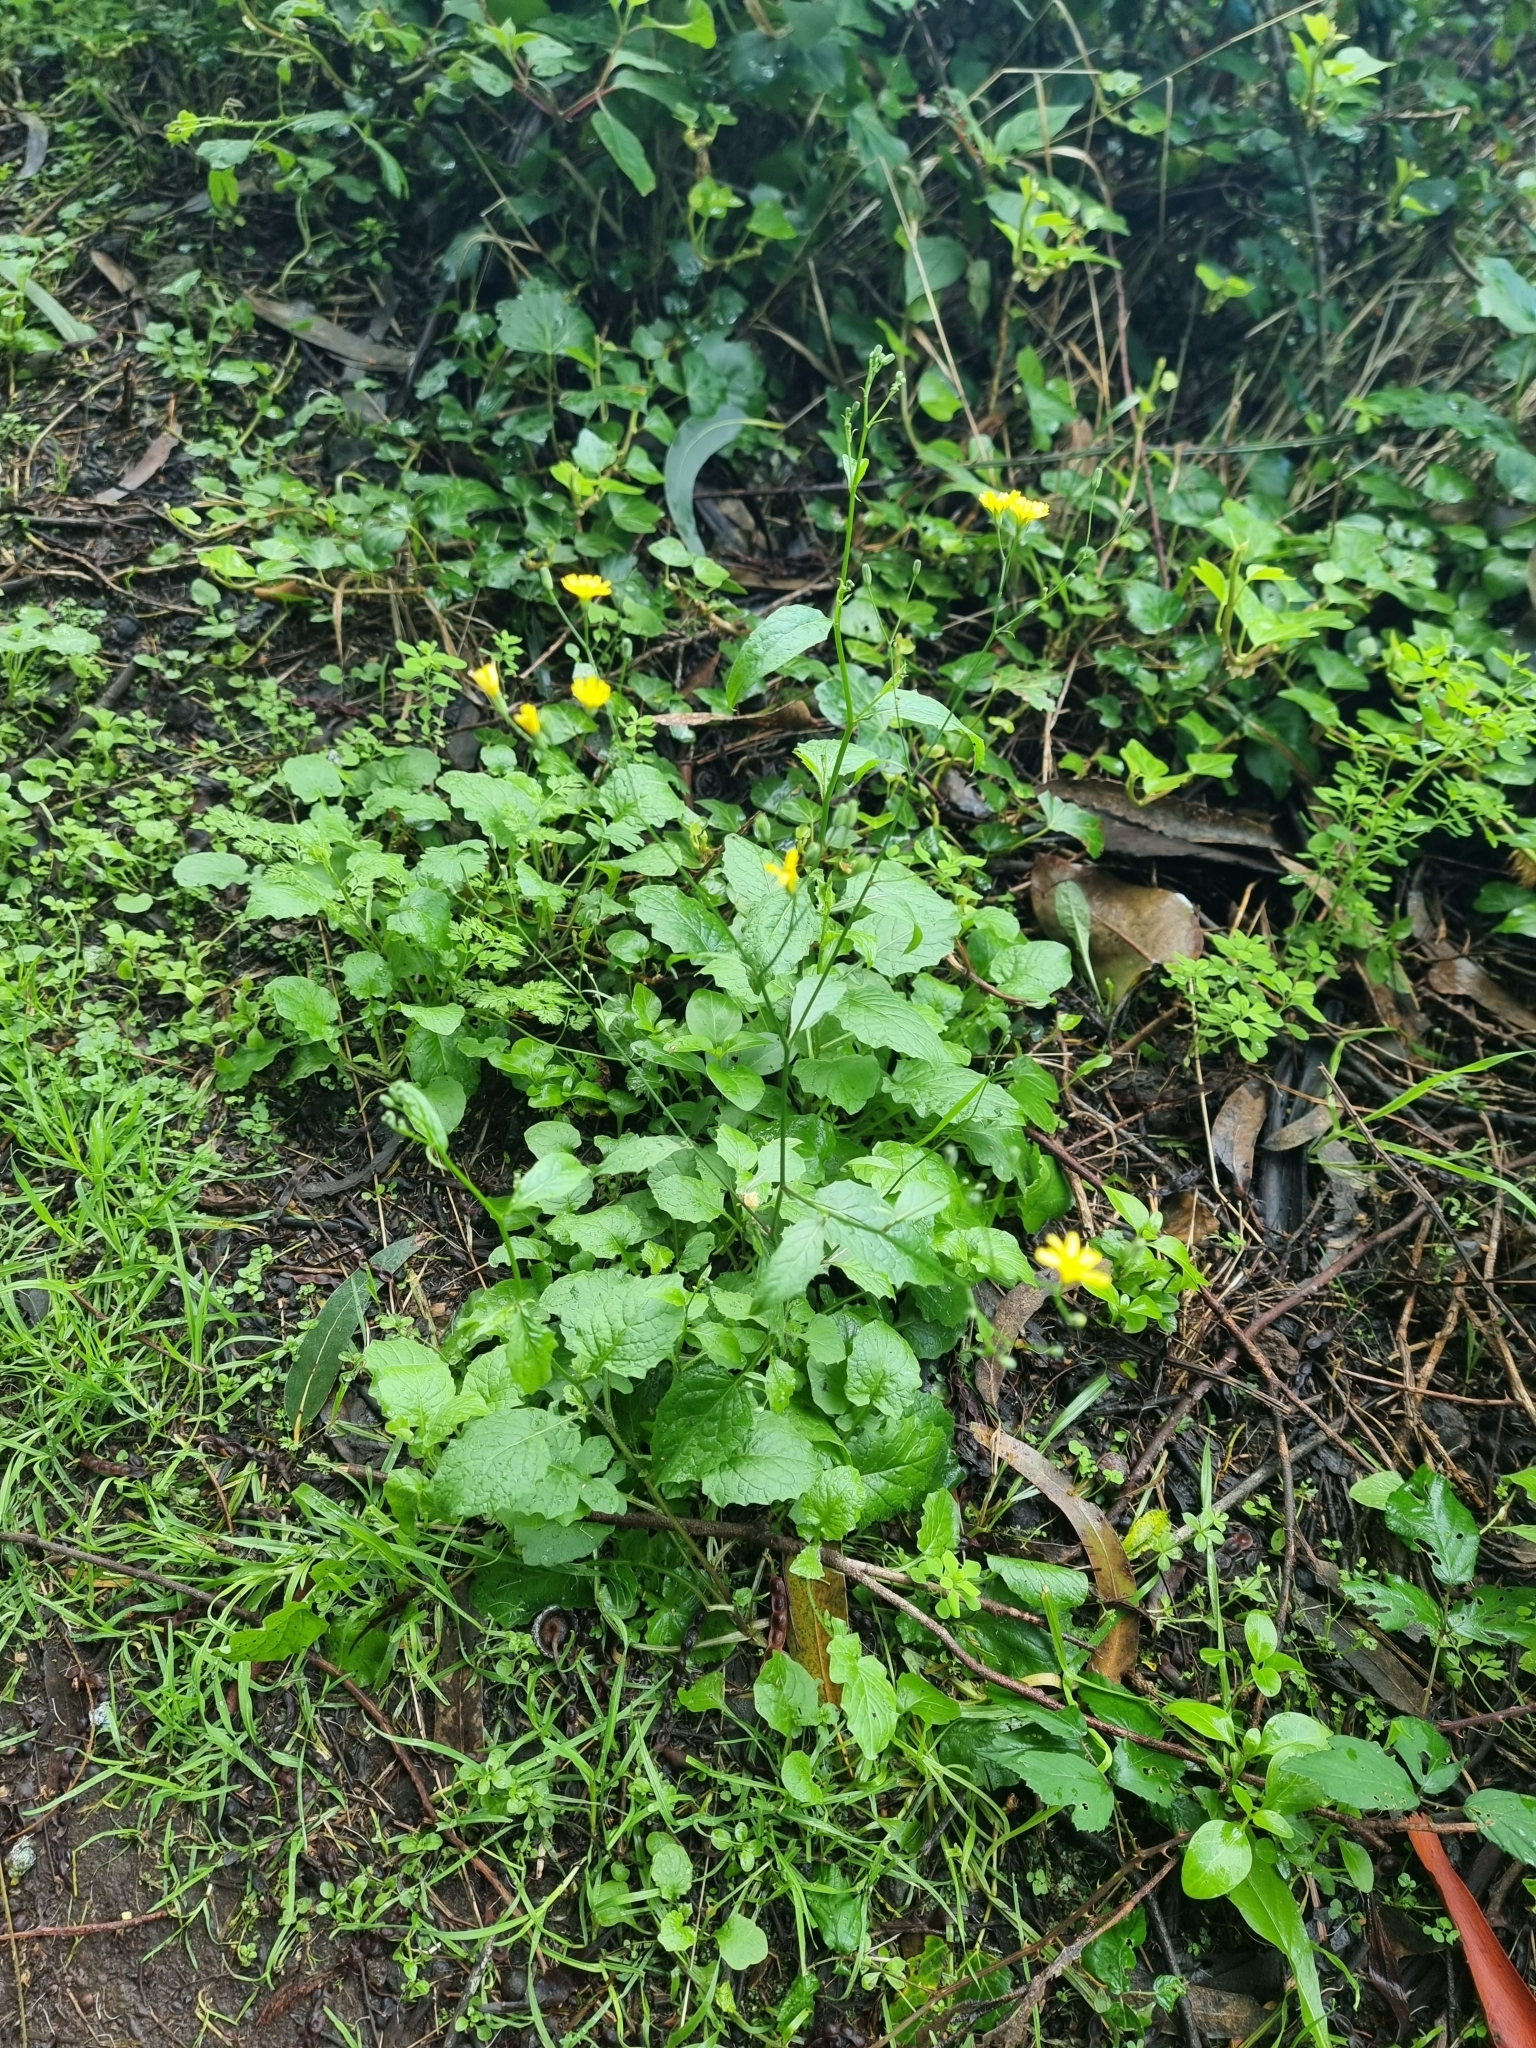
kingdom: Plantae
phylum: Tracheophyta
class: Magnoliopsida
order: Asterales
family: Asteraceae
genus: Lapsana
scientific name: Lapsana communis
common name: Nipplewort
